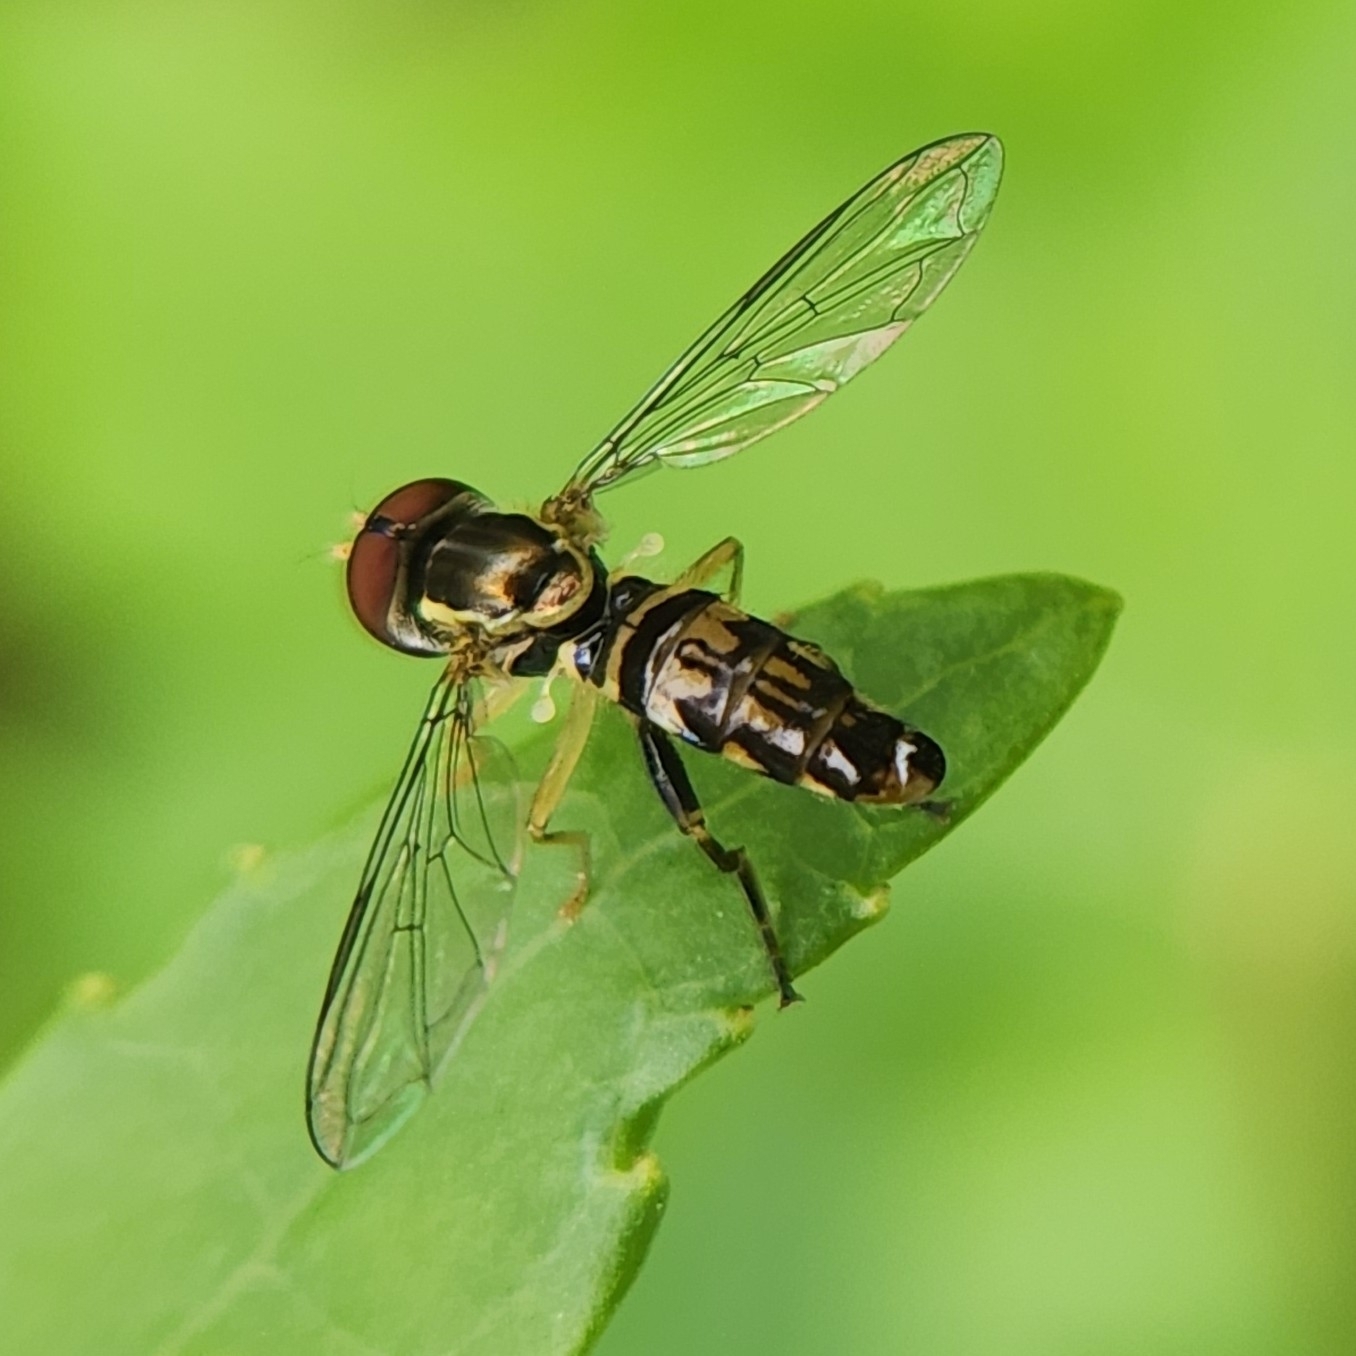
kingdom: Animalia
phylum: Arthropoda
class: Insecta
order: Diptera
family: Syrphidae
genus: Toxomerus
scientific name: Toxomerus geminatus
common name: Eastern calligrapher
